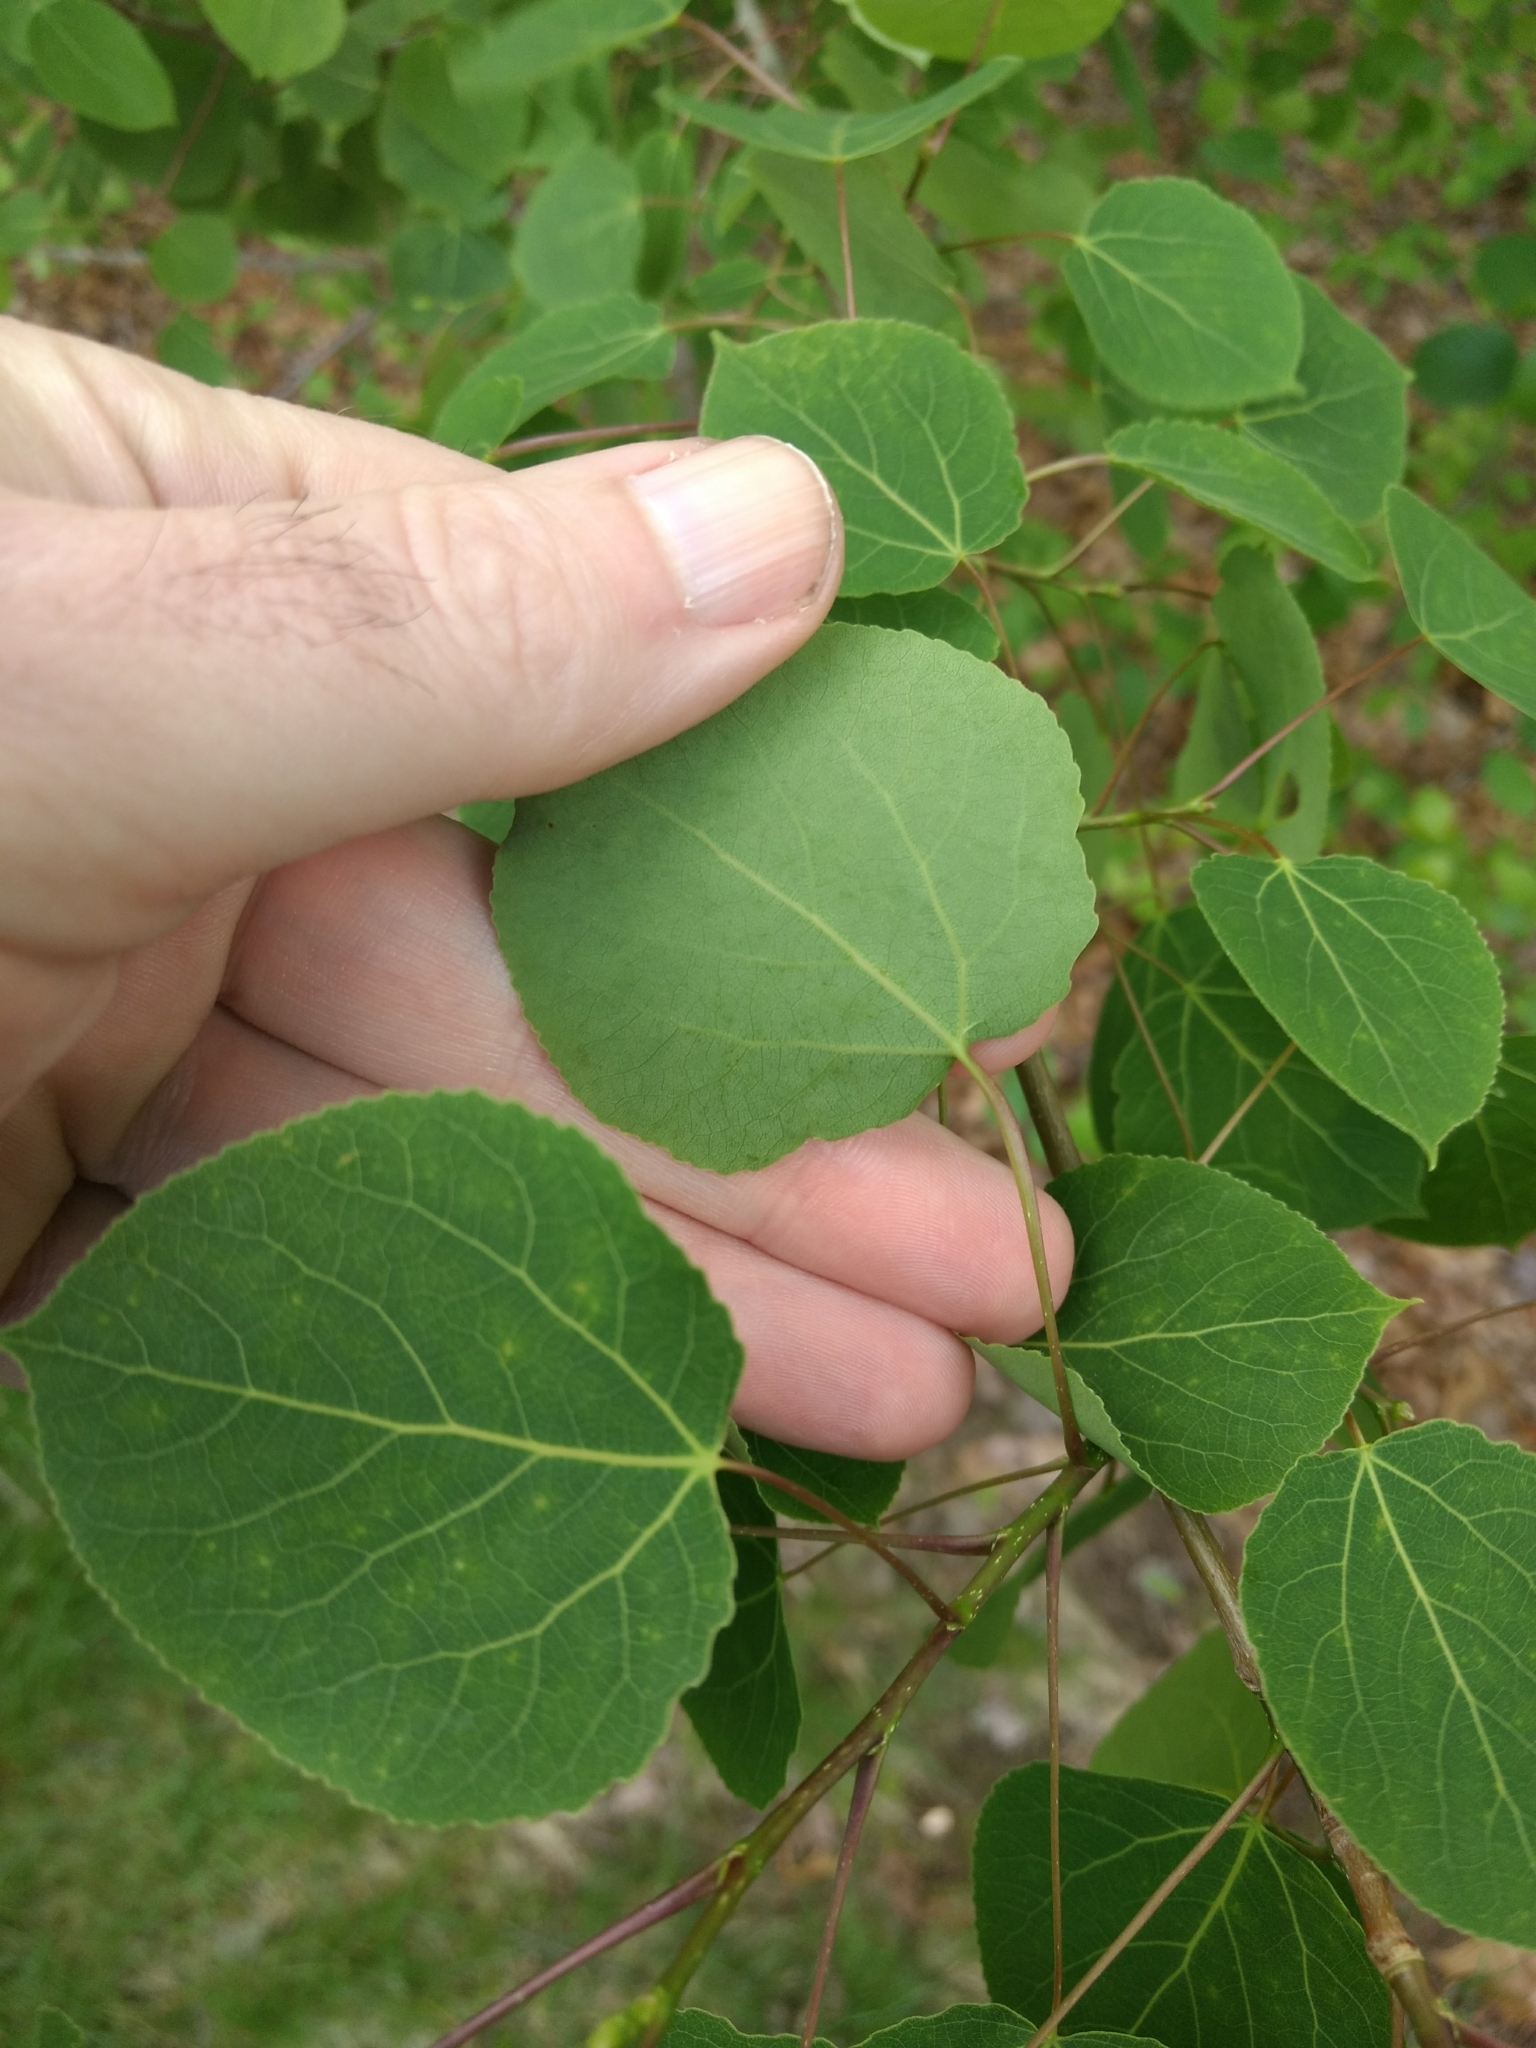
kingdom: Plantae
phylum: Tracheophyta
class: Magnoliopsida
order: Malpighiales
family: Salicaceae
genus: Populus
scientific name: Populus tremuloides
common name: Quaking aspen
